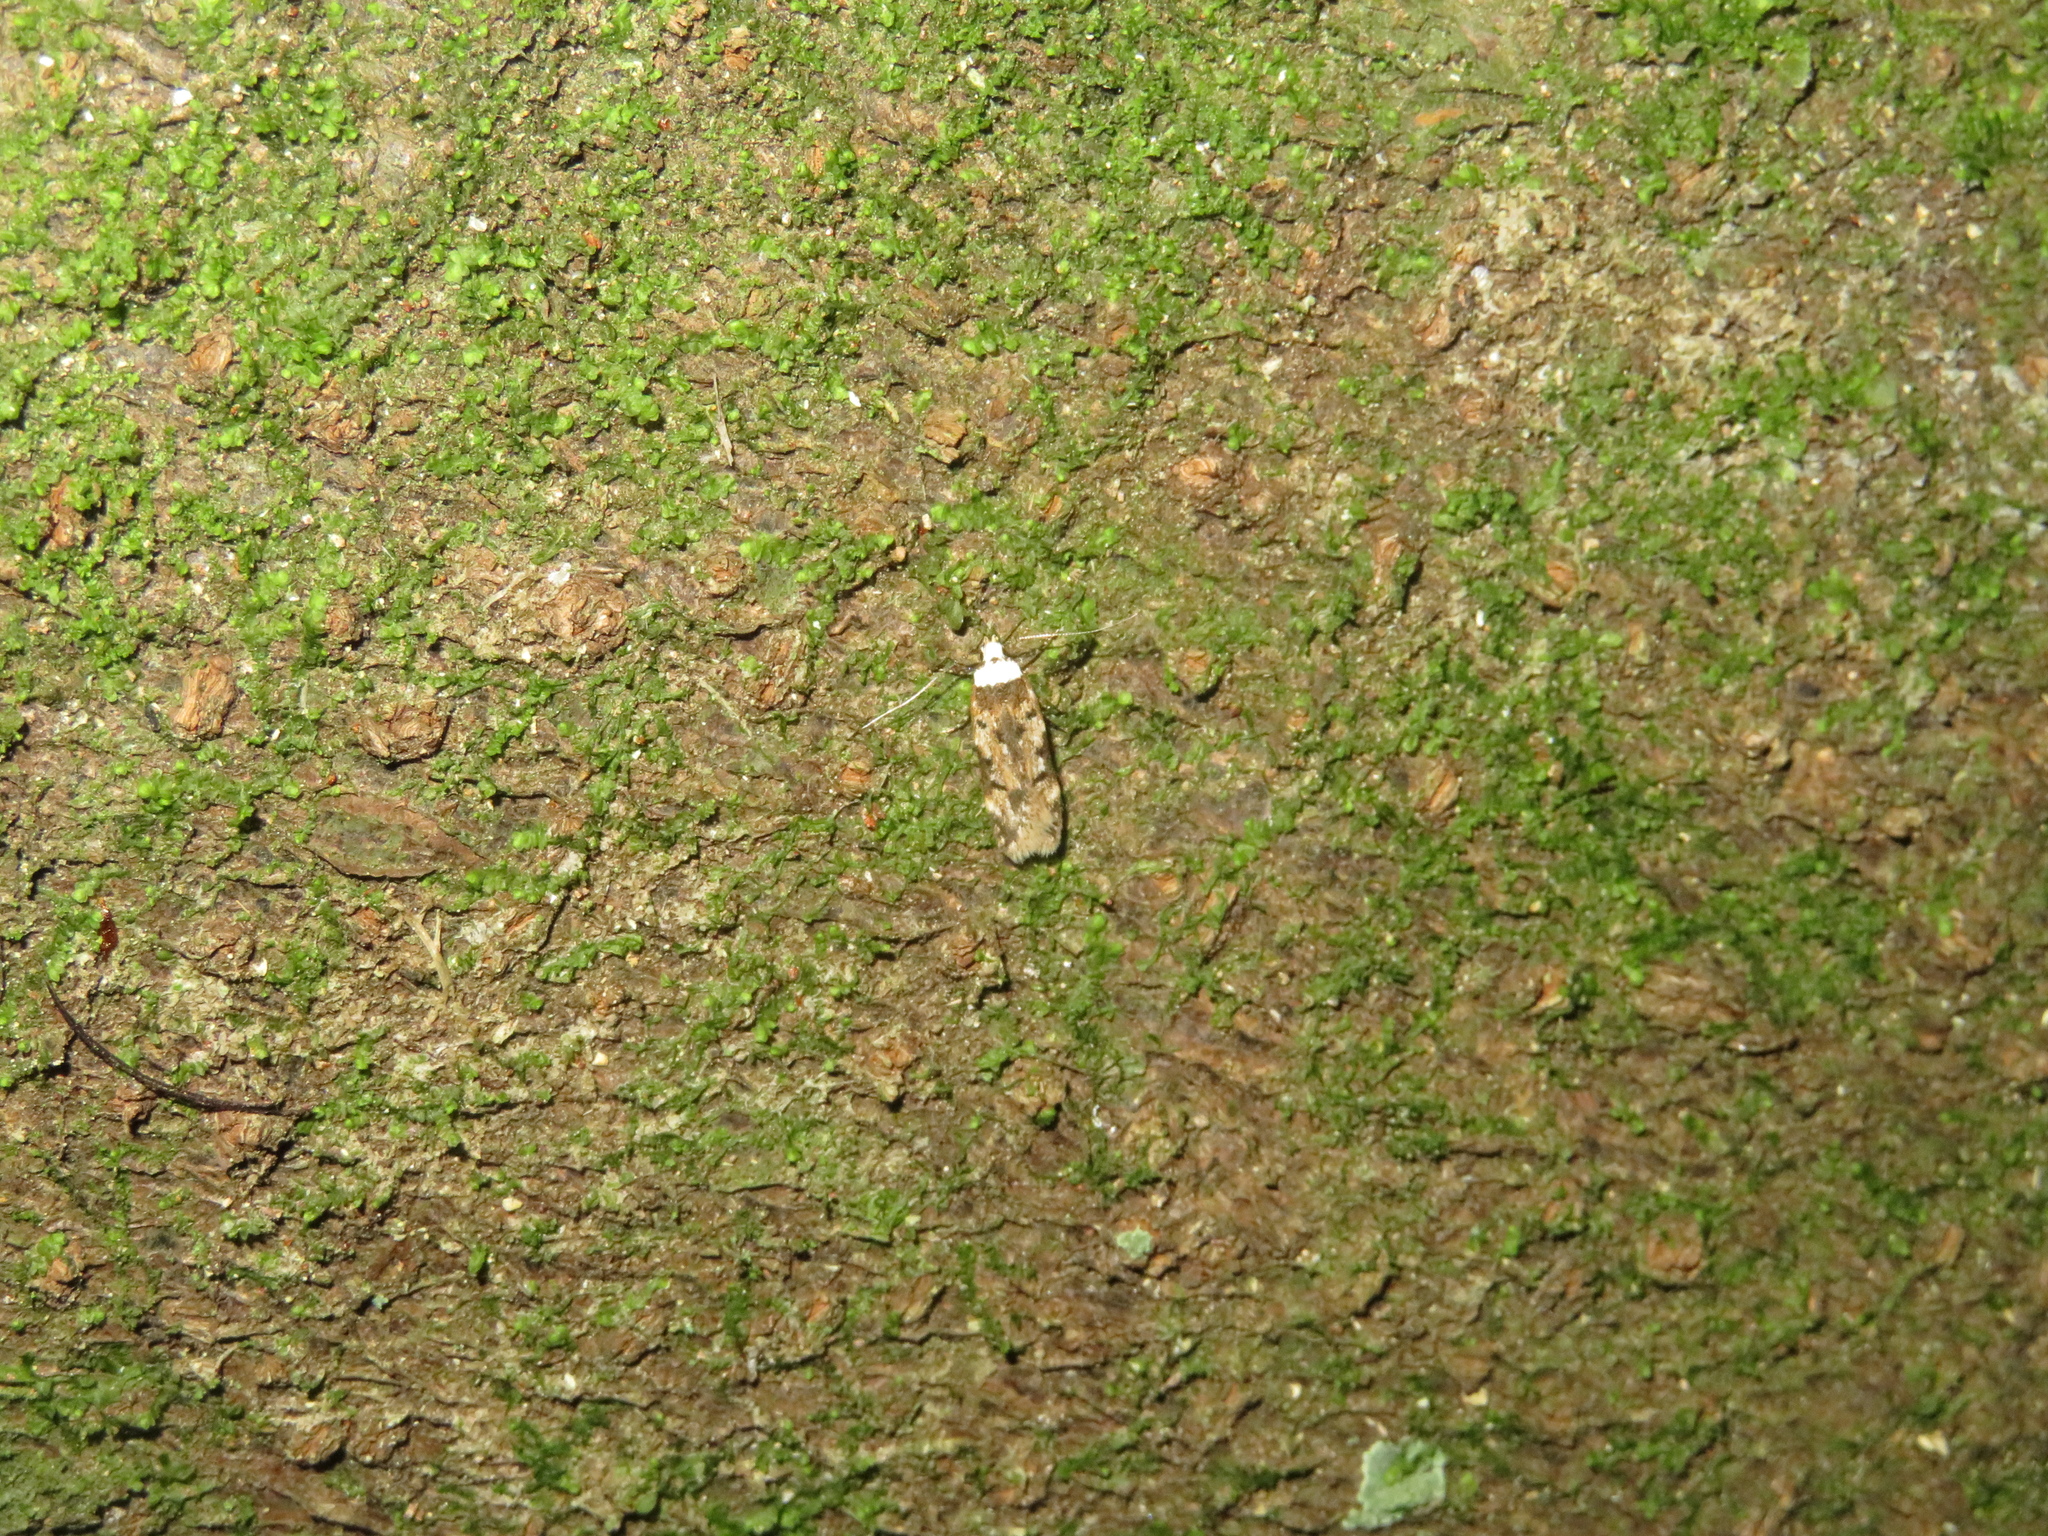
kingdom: Animalia
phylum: Arthropoda
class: Insecta
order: Lepidoptera
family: Oecophoridae
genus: Endrosis
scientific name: Endrosis sarcitrella
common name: White-shouldered house moth
